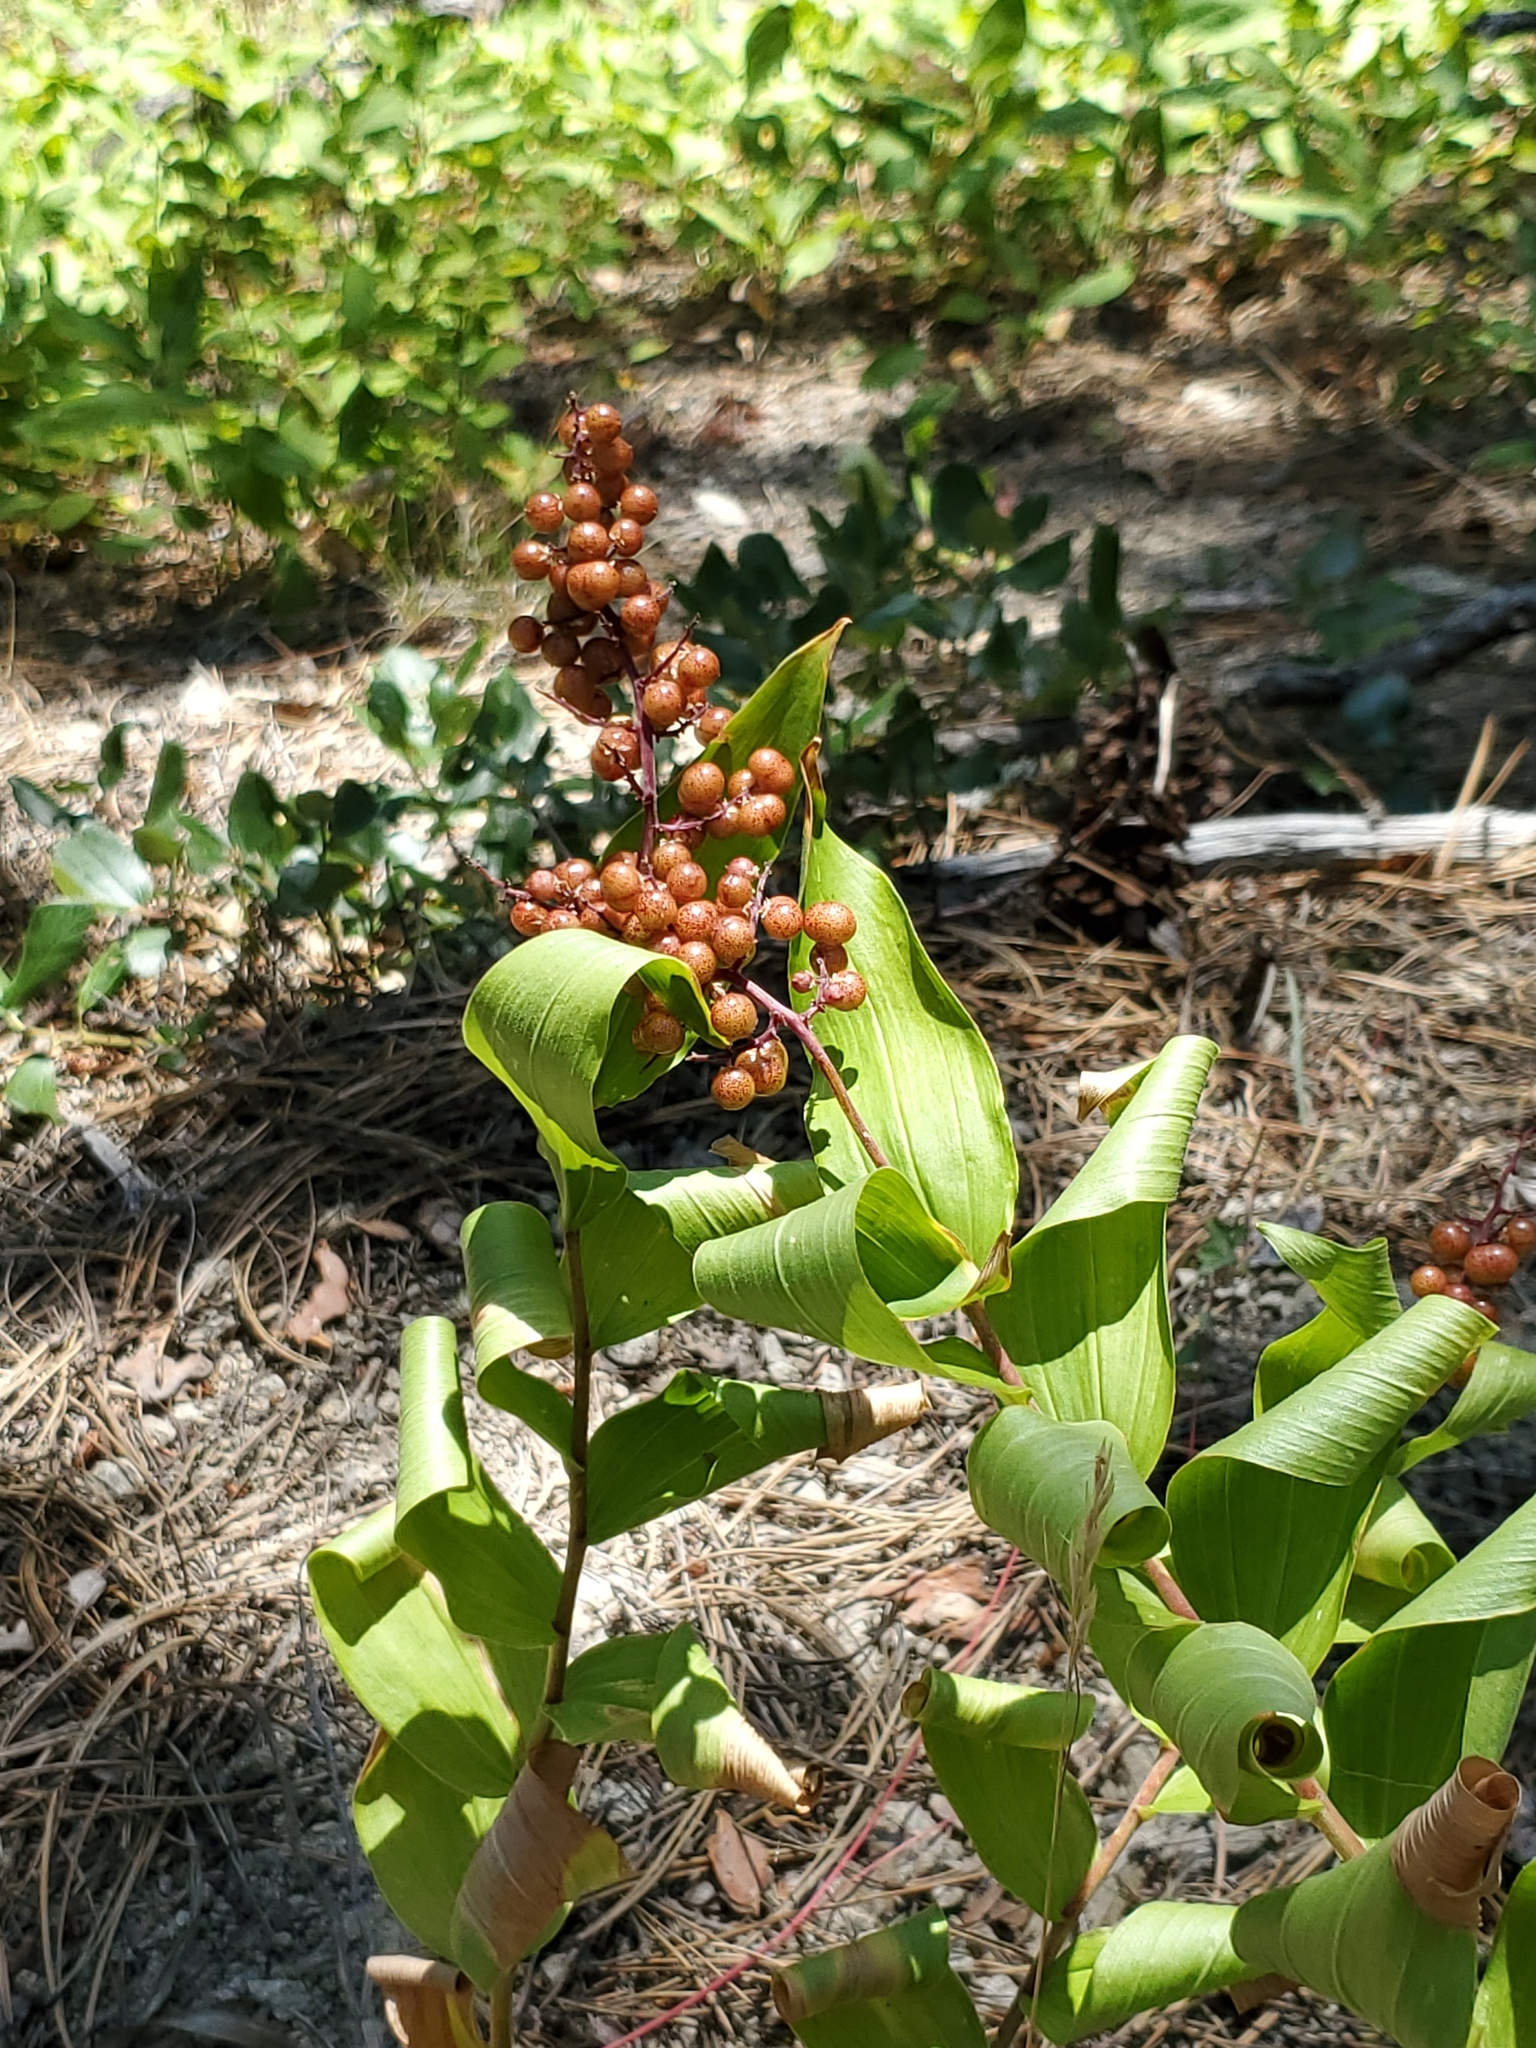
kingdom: Plantae
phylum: Tracheophyta
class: Liliopsida
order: Asparagales
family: Asparagaceae
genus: Maianthemum
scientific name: Maianthemum racemosum
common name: False spikenard
